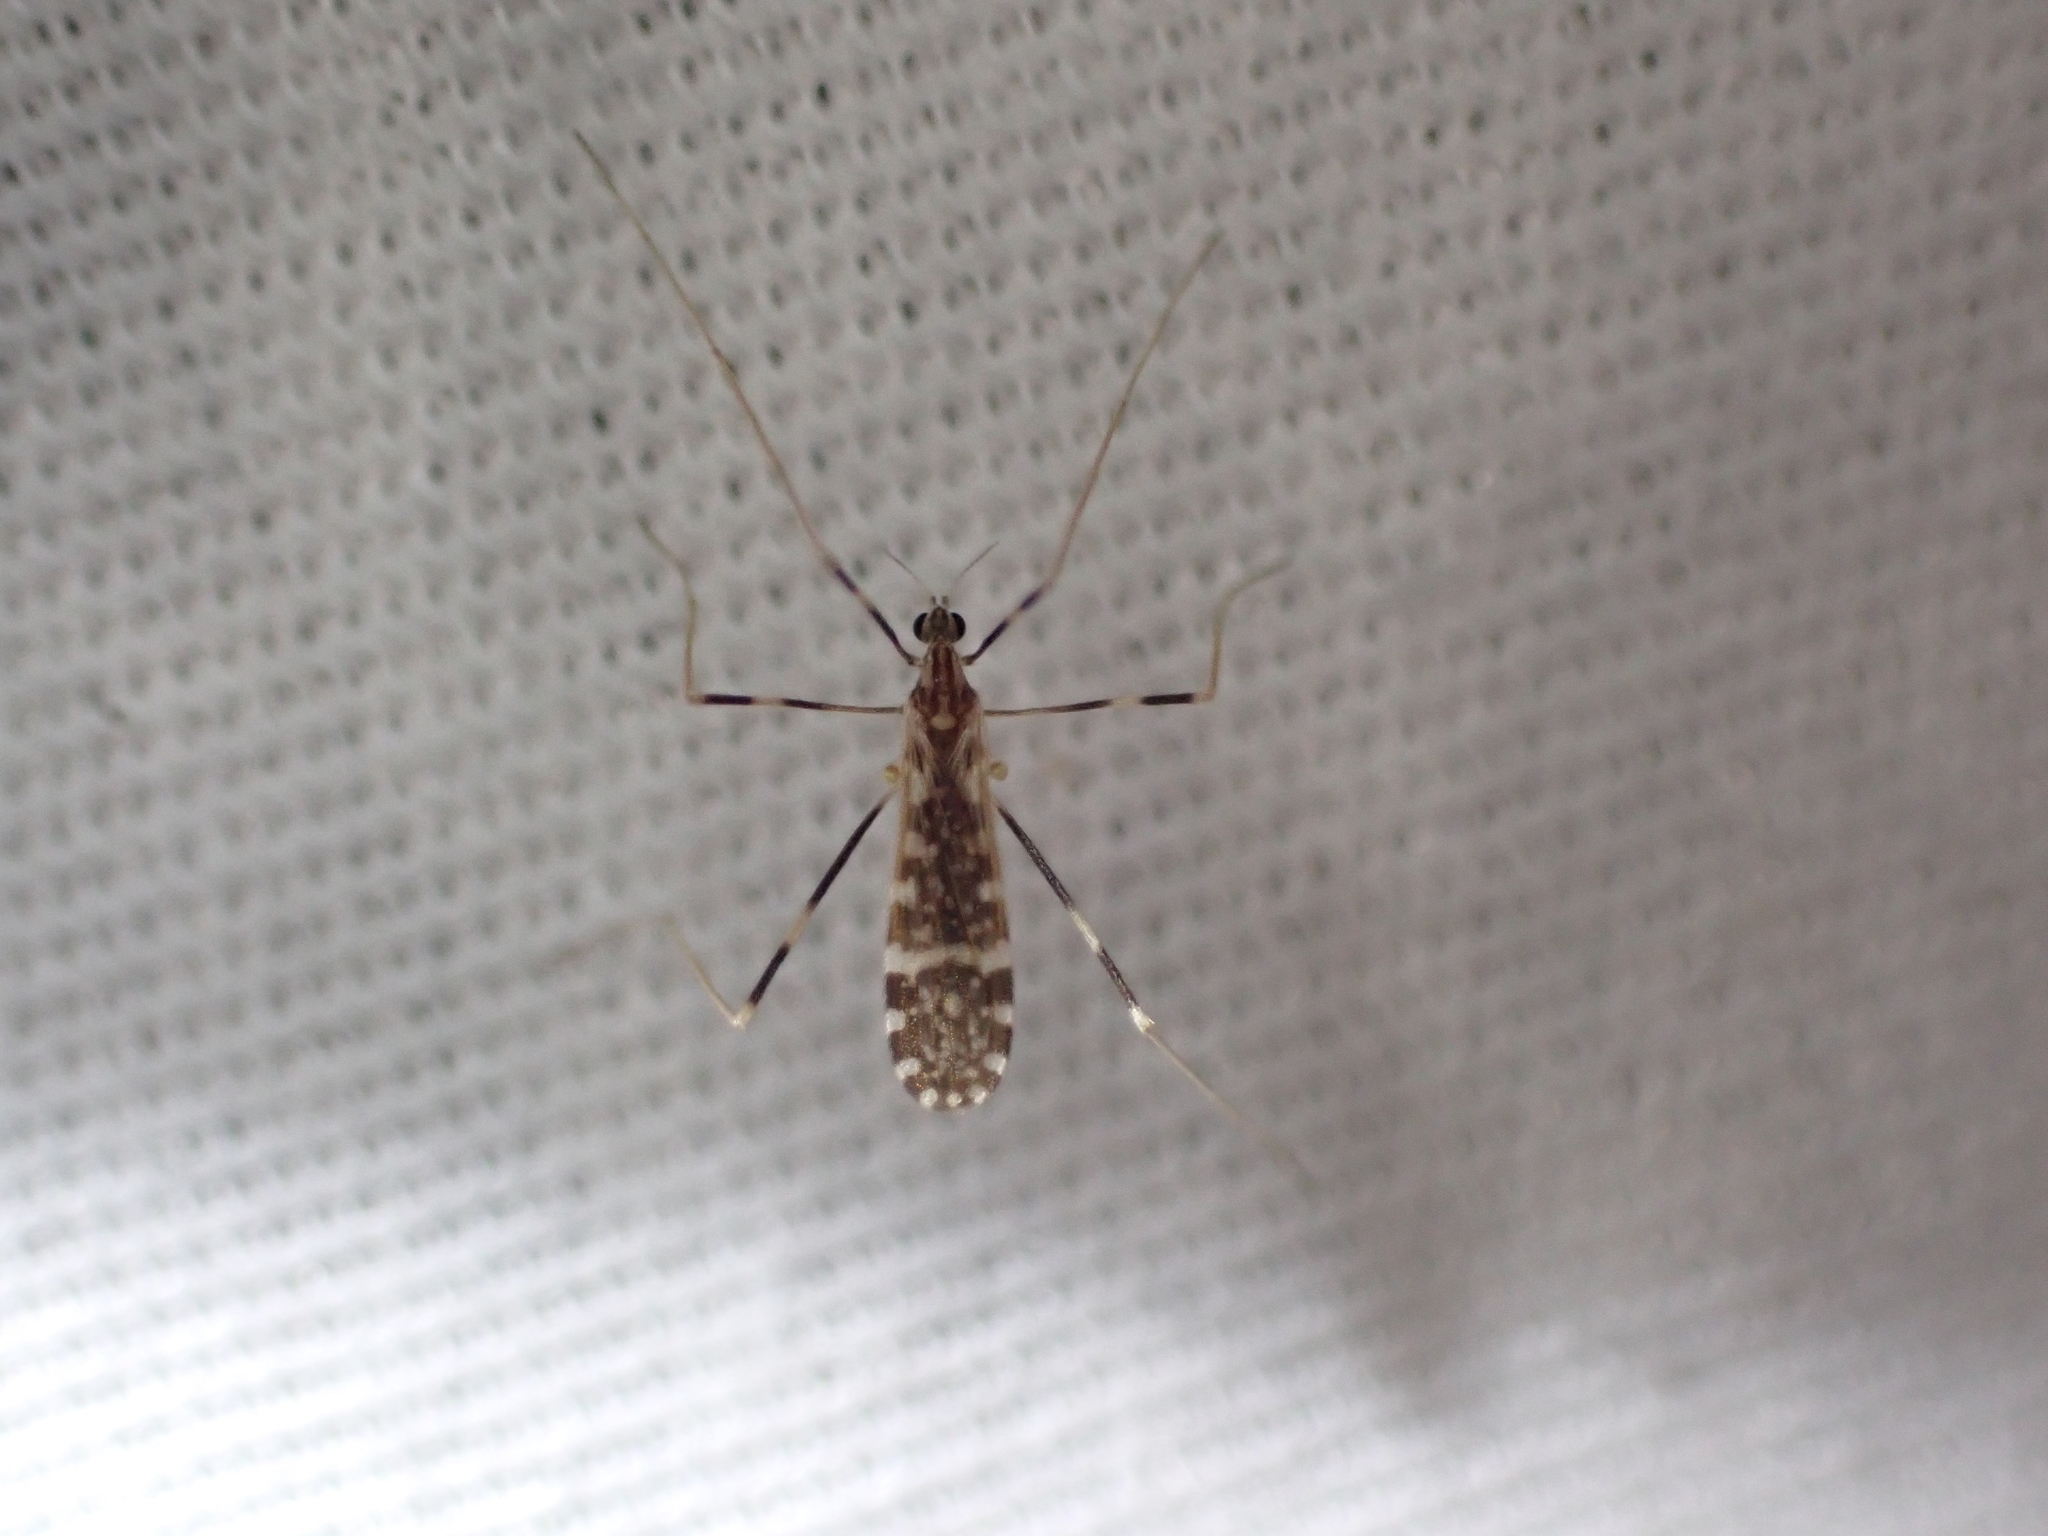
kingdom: Animalia
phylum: Arthropoda
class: Insecta
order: Diptera
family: Limoniidae
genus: Erioptera
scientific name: Erioptera caliptera
